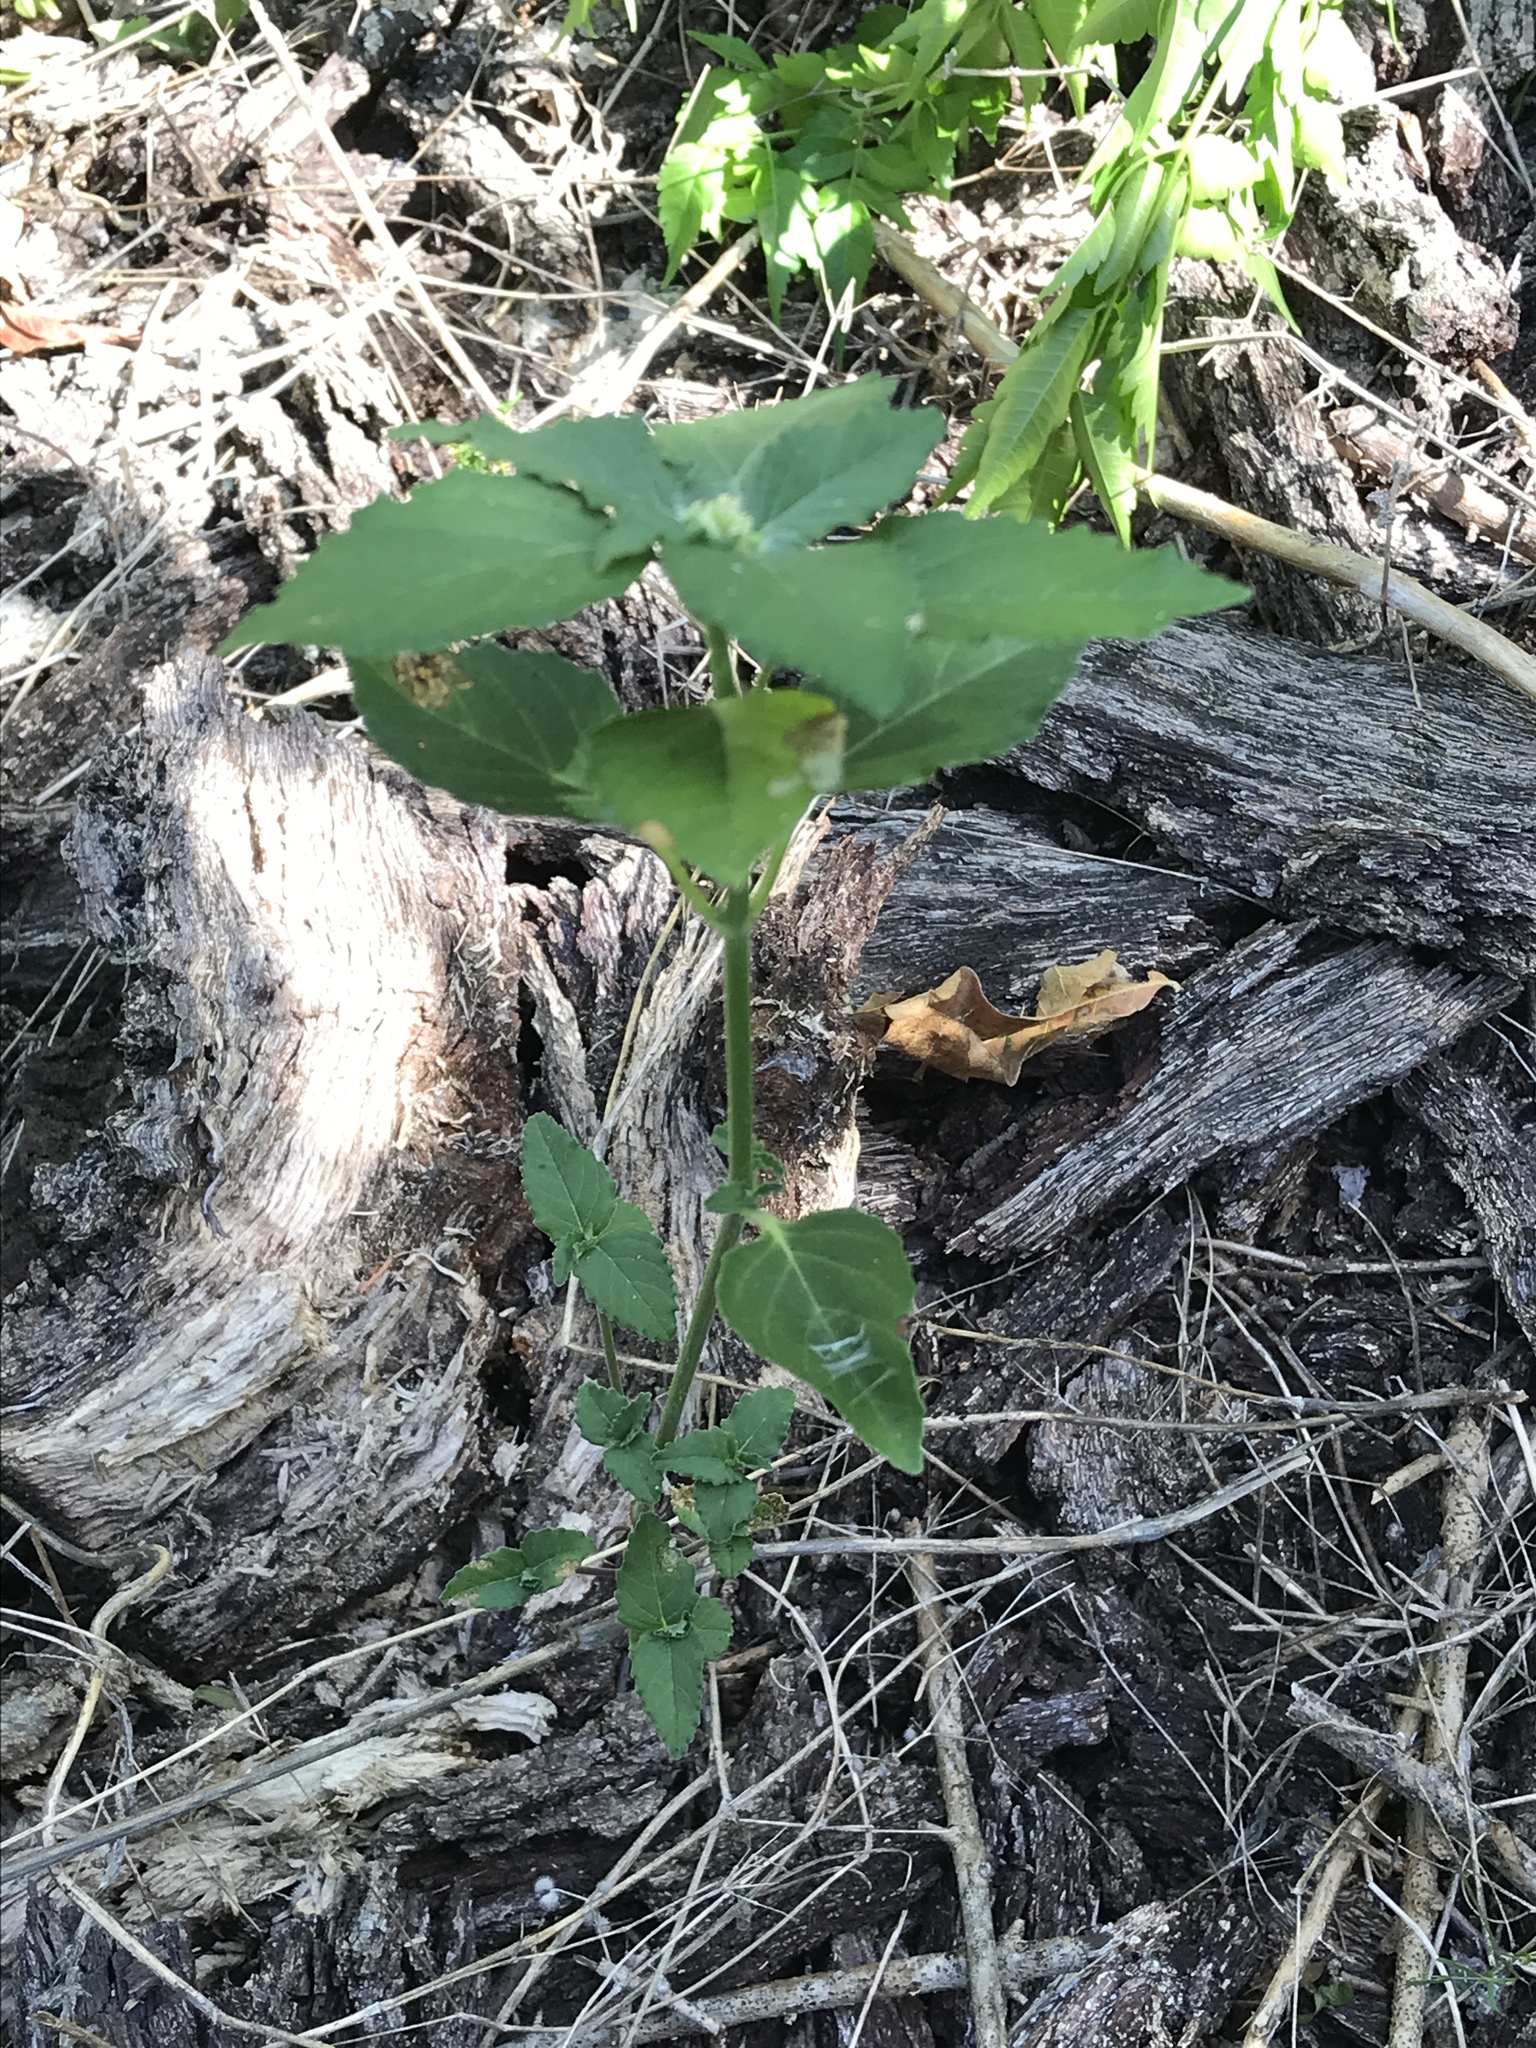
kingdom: Plantae
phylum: Tracheophyta
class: Magnoliopsida
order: Malpighiales
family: Euphorbiaceae
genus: Euphorbia
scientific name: Euphorbia dentata
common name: Dentate spurge
